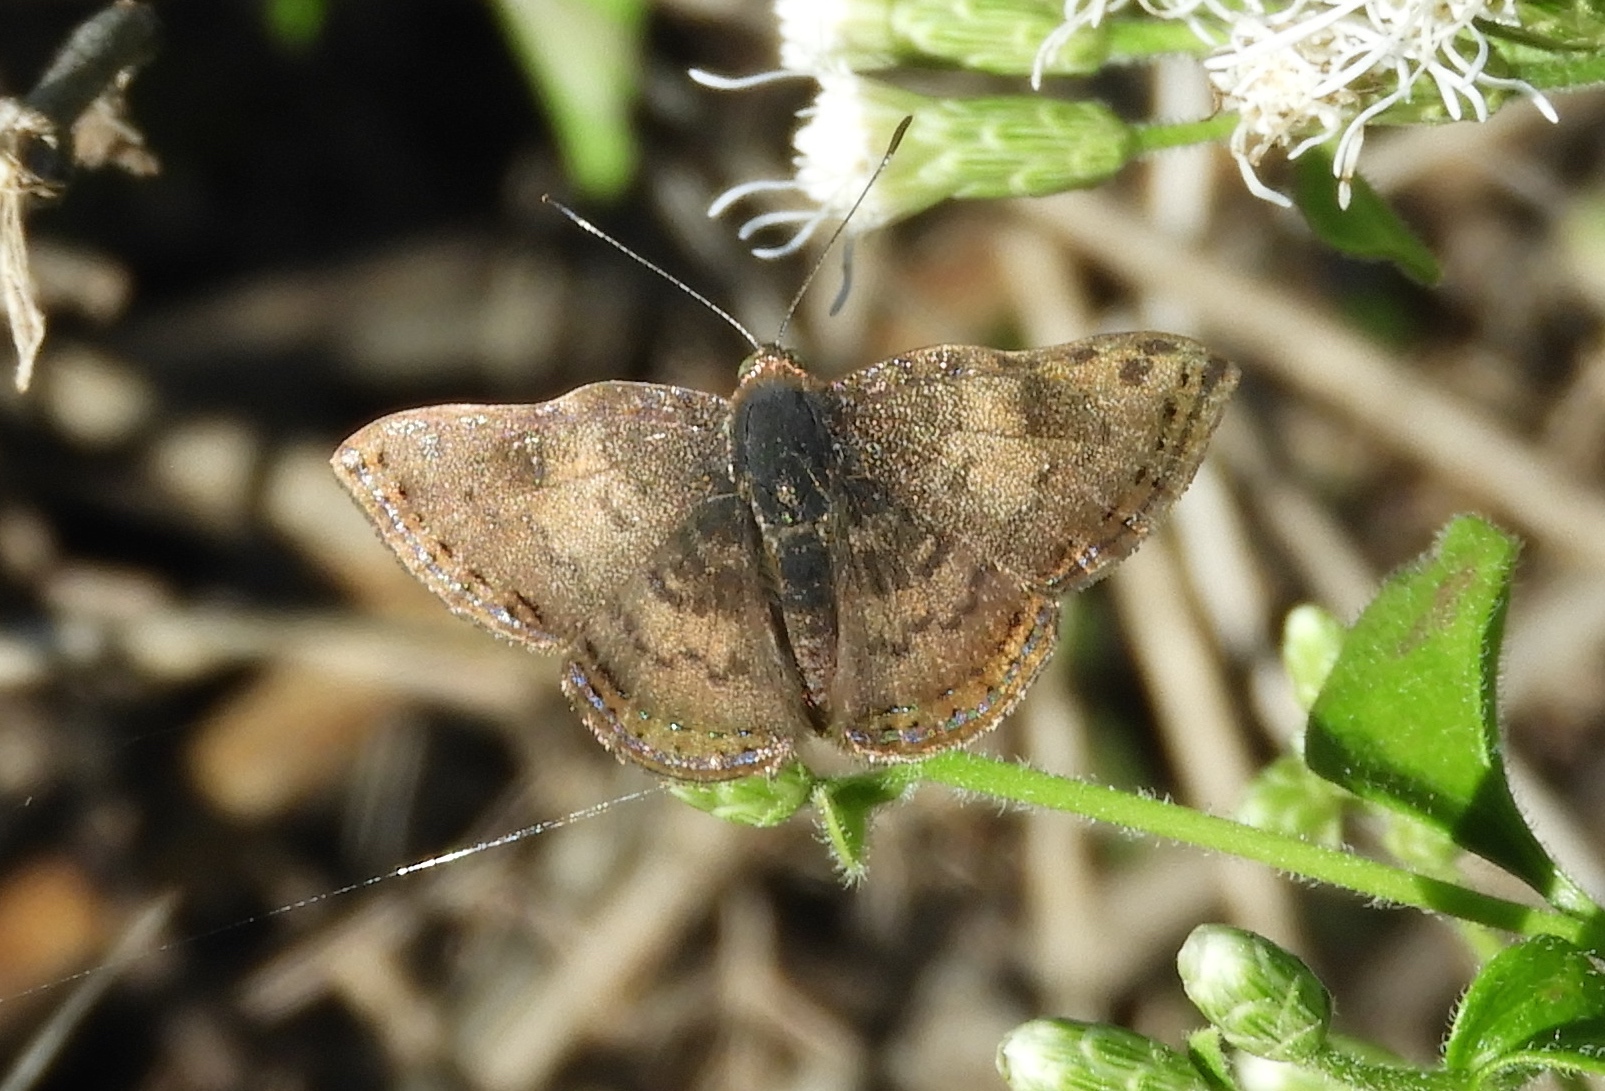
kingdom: Animalia
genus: Caria
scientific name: Caria ino
